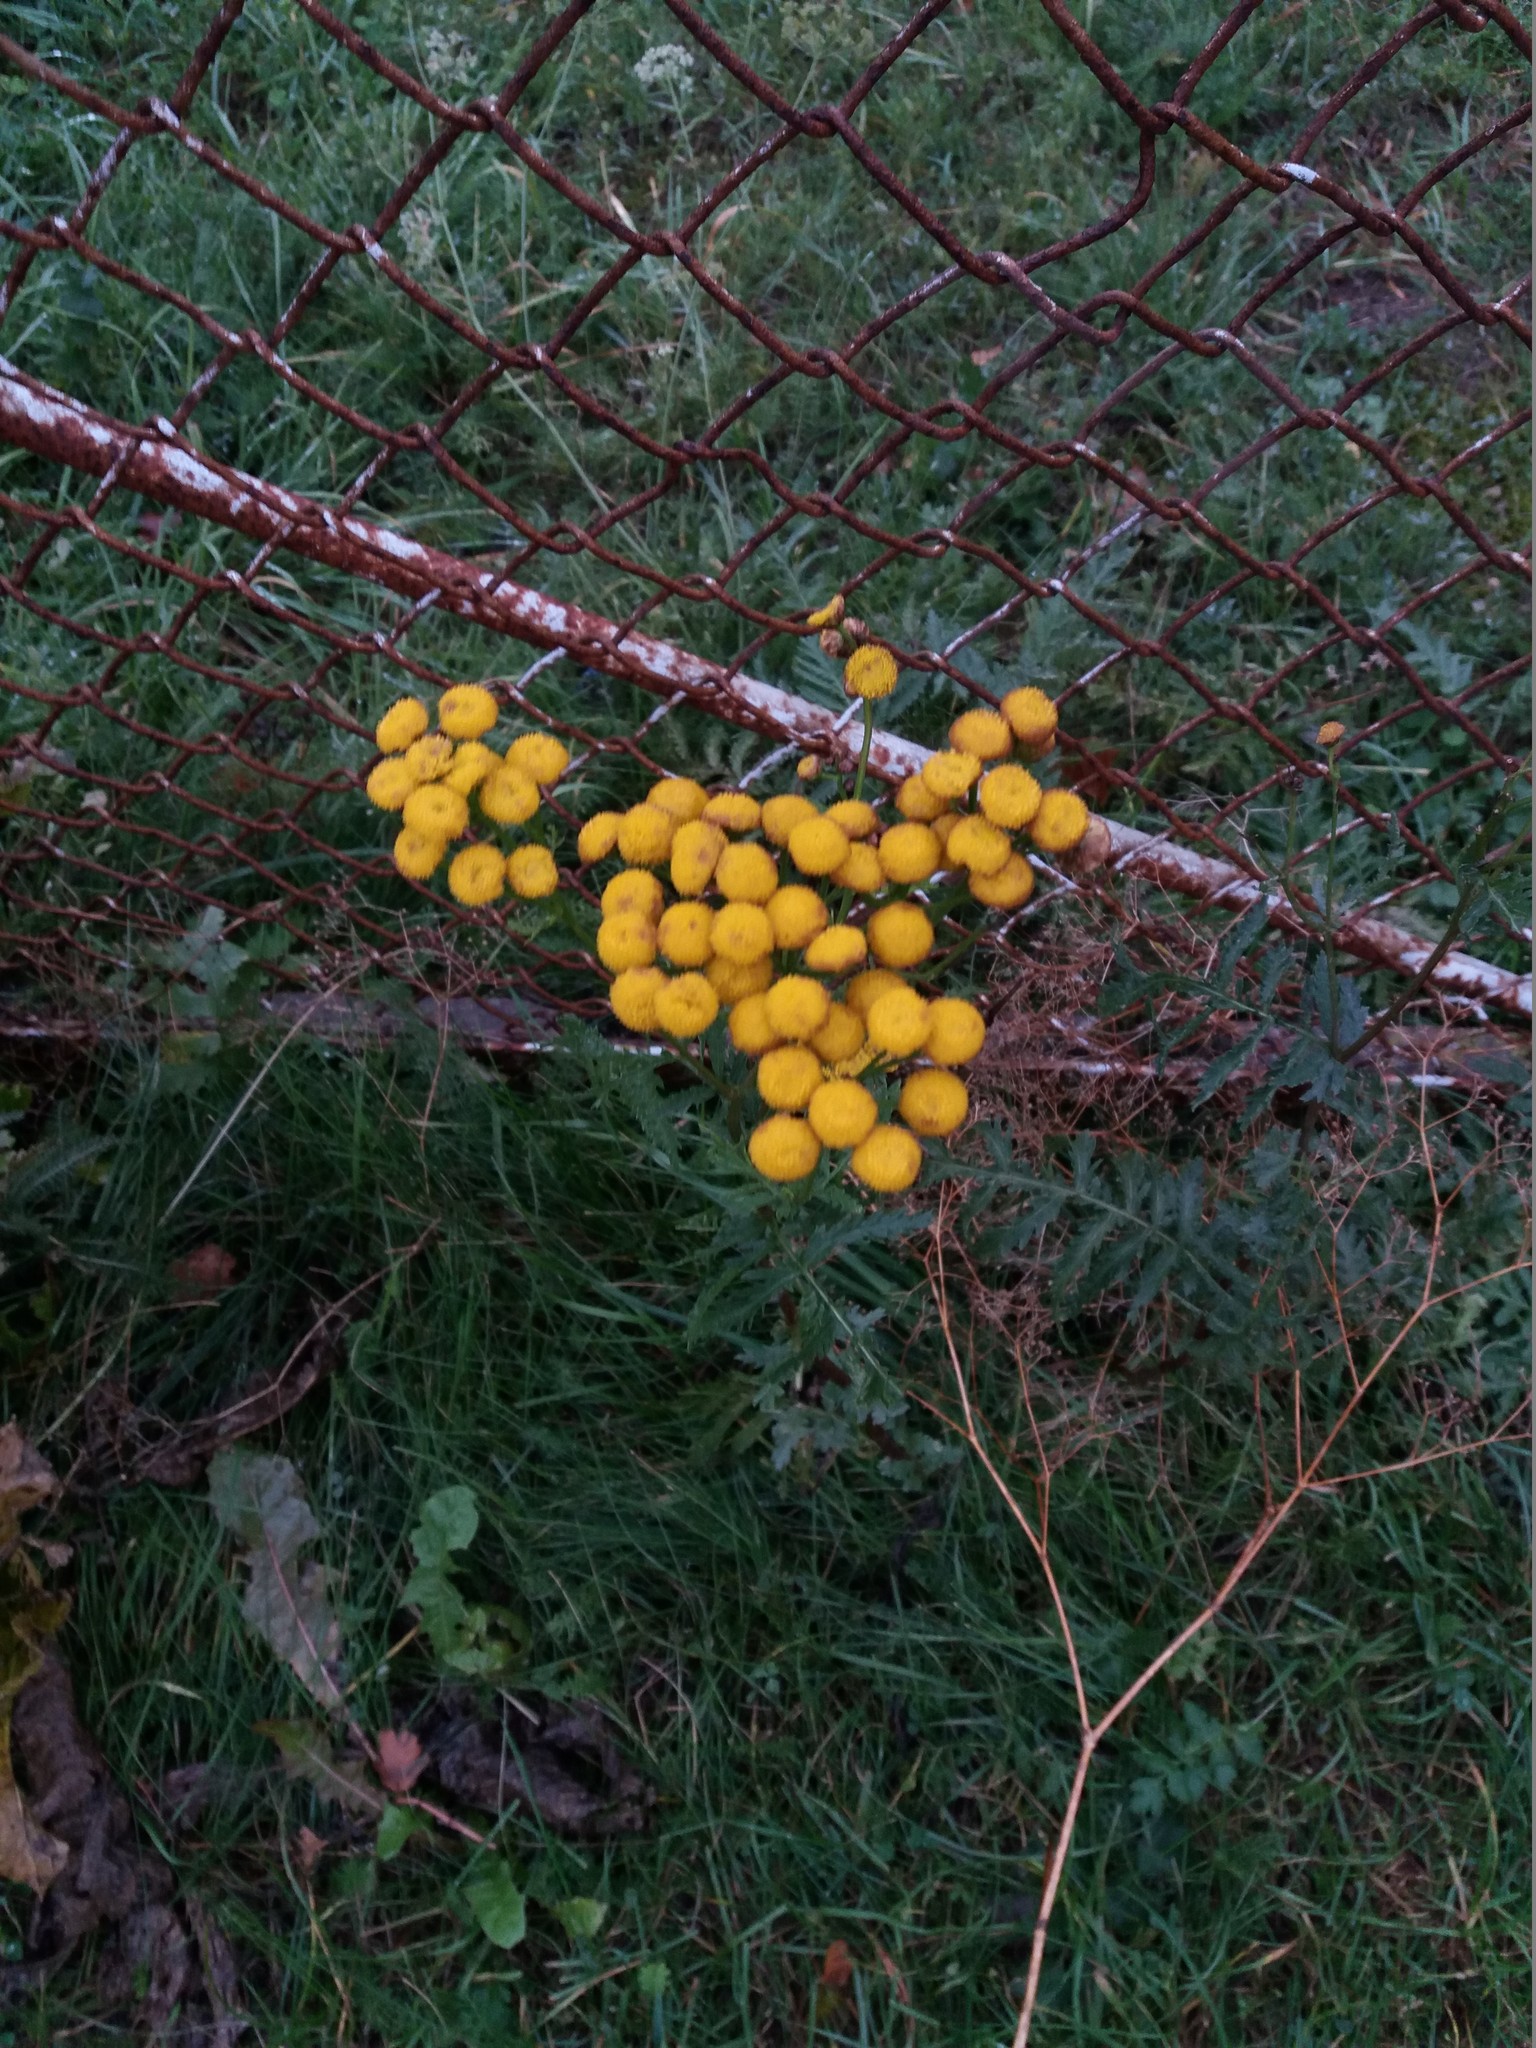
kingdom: Plantae
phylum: Tracheophyta
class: Magnoliopsida
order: Asterales
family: Asteraceae
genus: Tanacetum
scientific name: Tanacetum vulgare
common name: Common tansy
